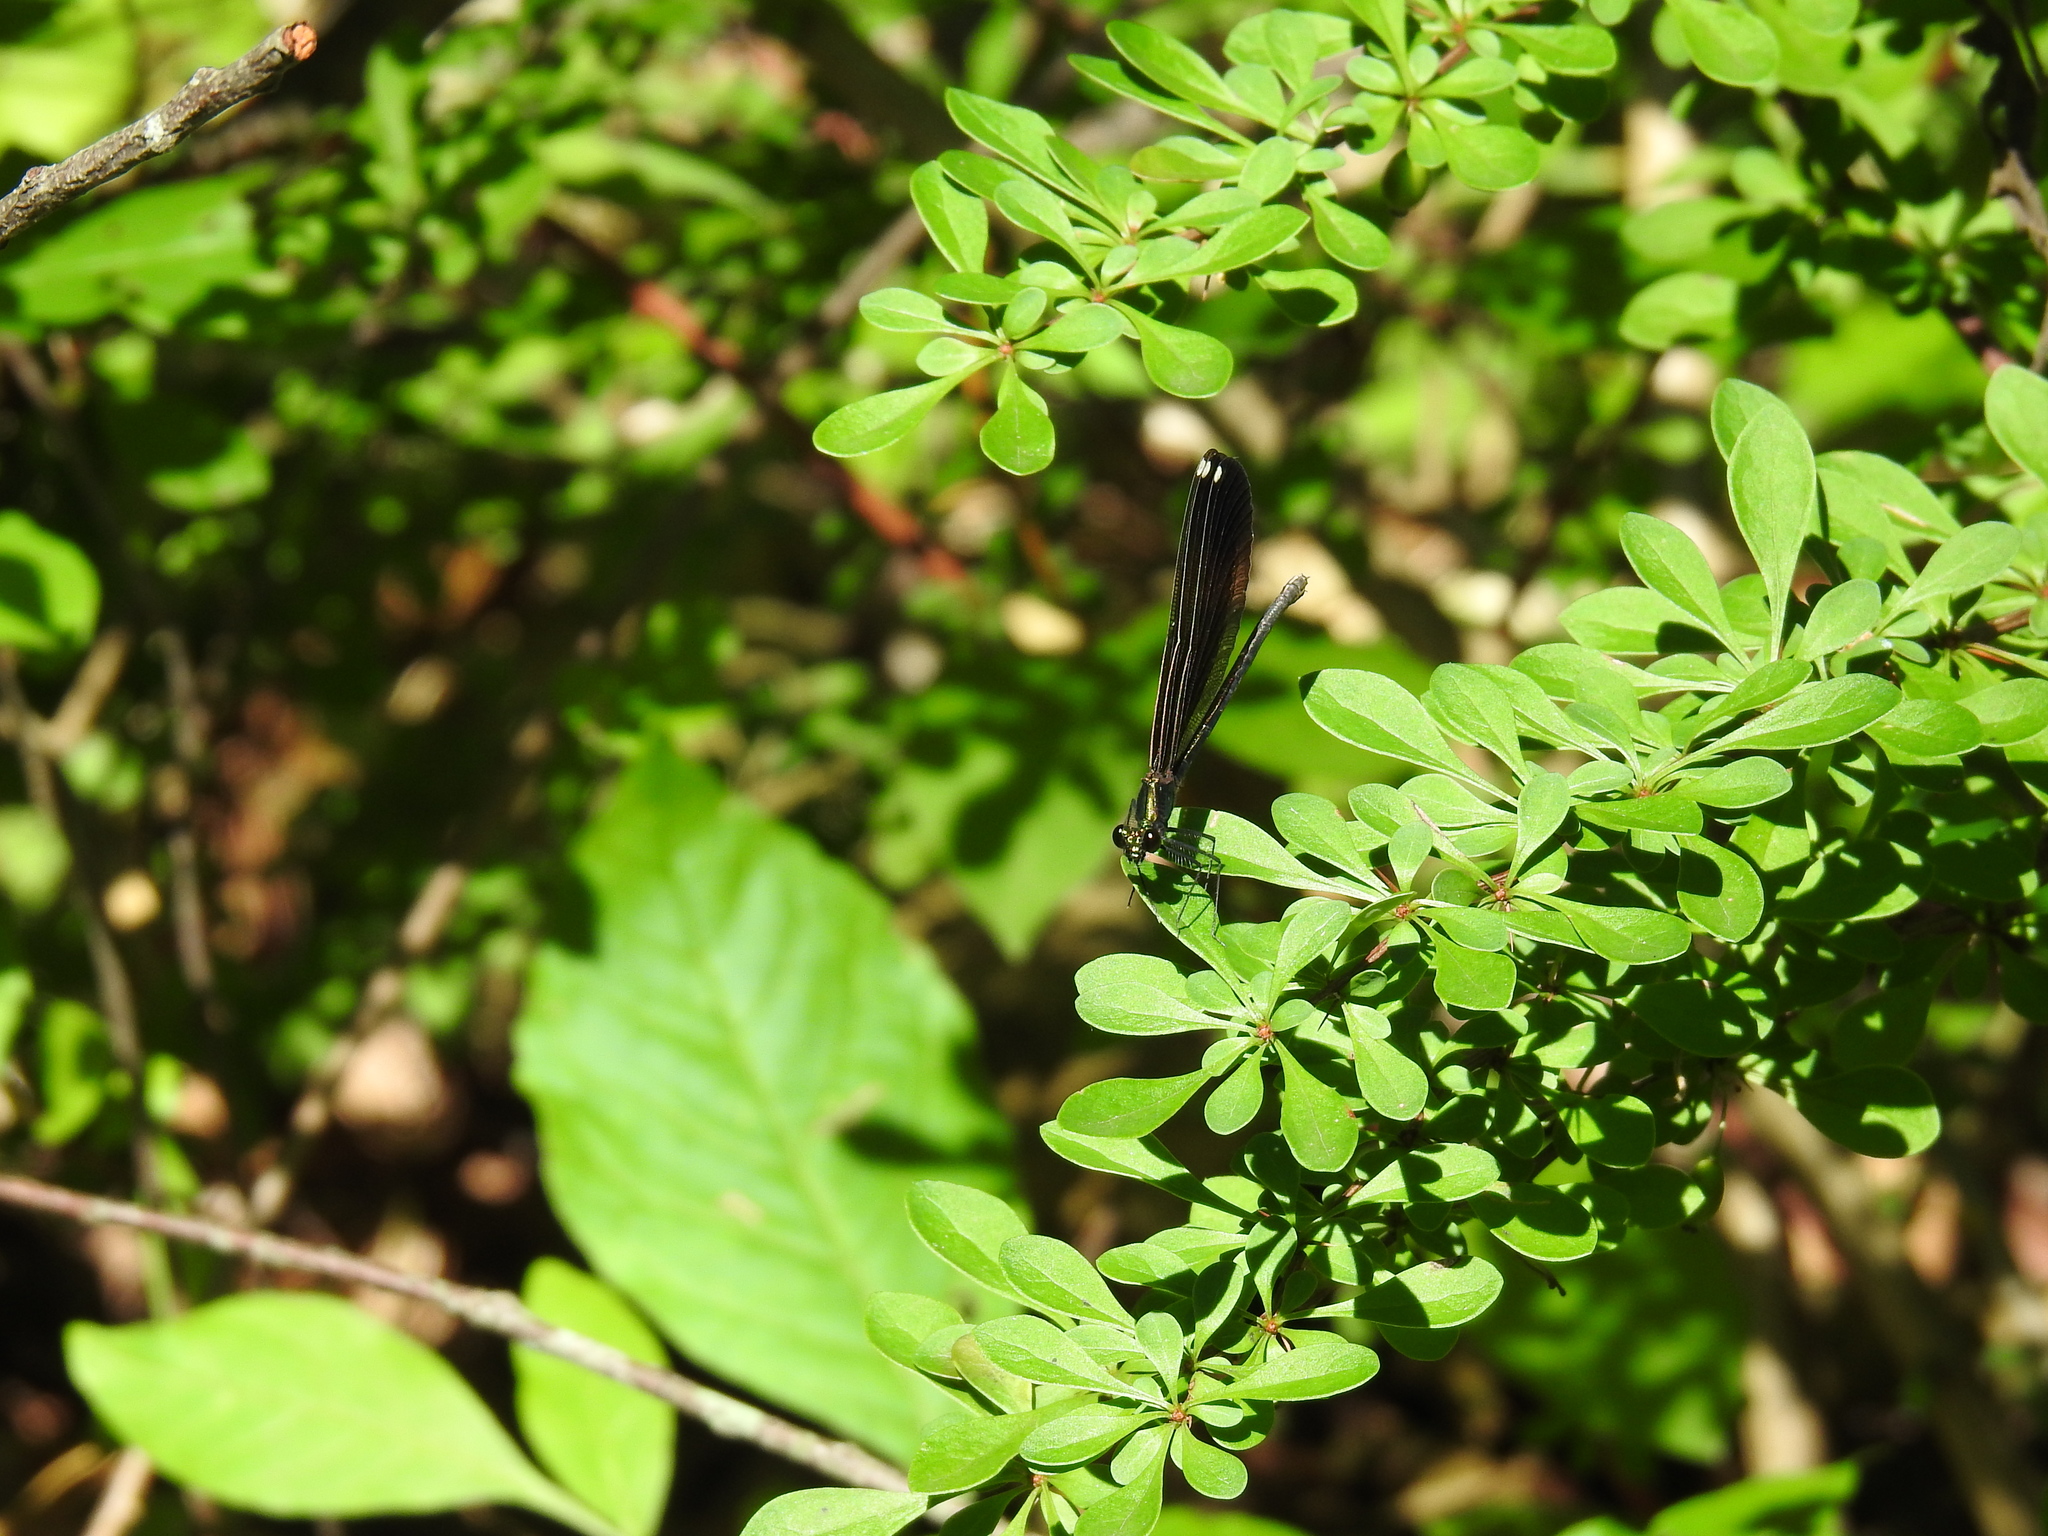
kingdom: Animalia
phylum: Arthropoda
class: Insecta
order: Odonata
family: Calopterygidae
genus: Calopteryx
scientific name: Calopteryx maculata
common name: Ebony jewelwing
